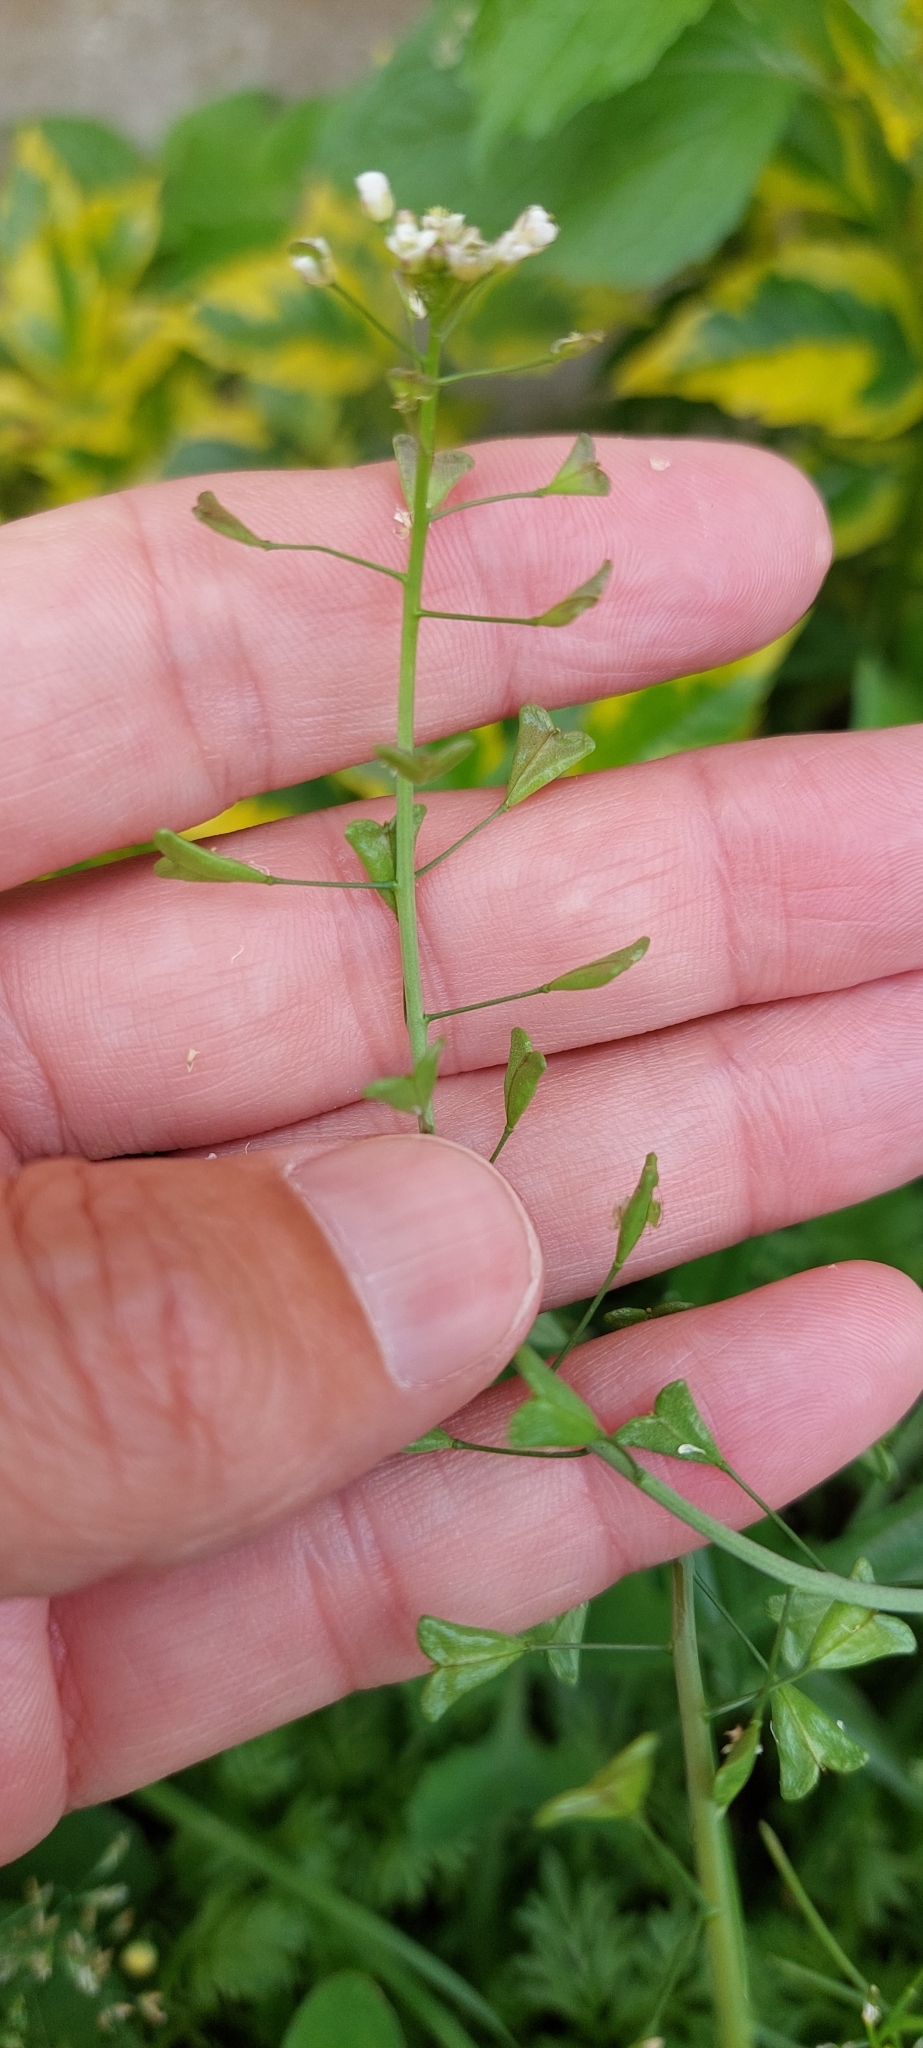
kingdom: Plantae
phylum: Tracheophyta
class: Magnoliopsida
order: Brassicales
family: Brassicaceae
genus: Capsella
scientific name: Capsella bursa-pastoris
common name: Shepherd's purse
